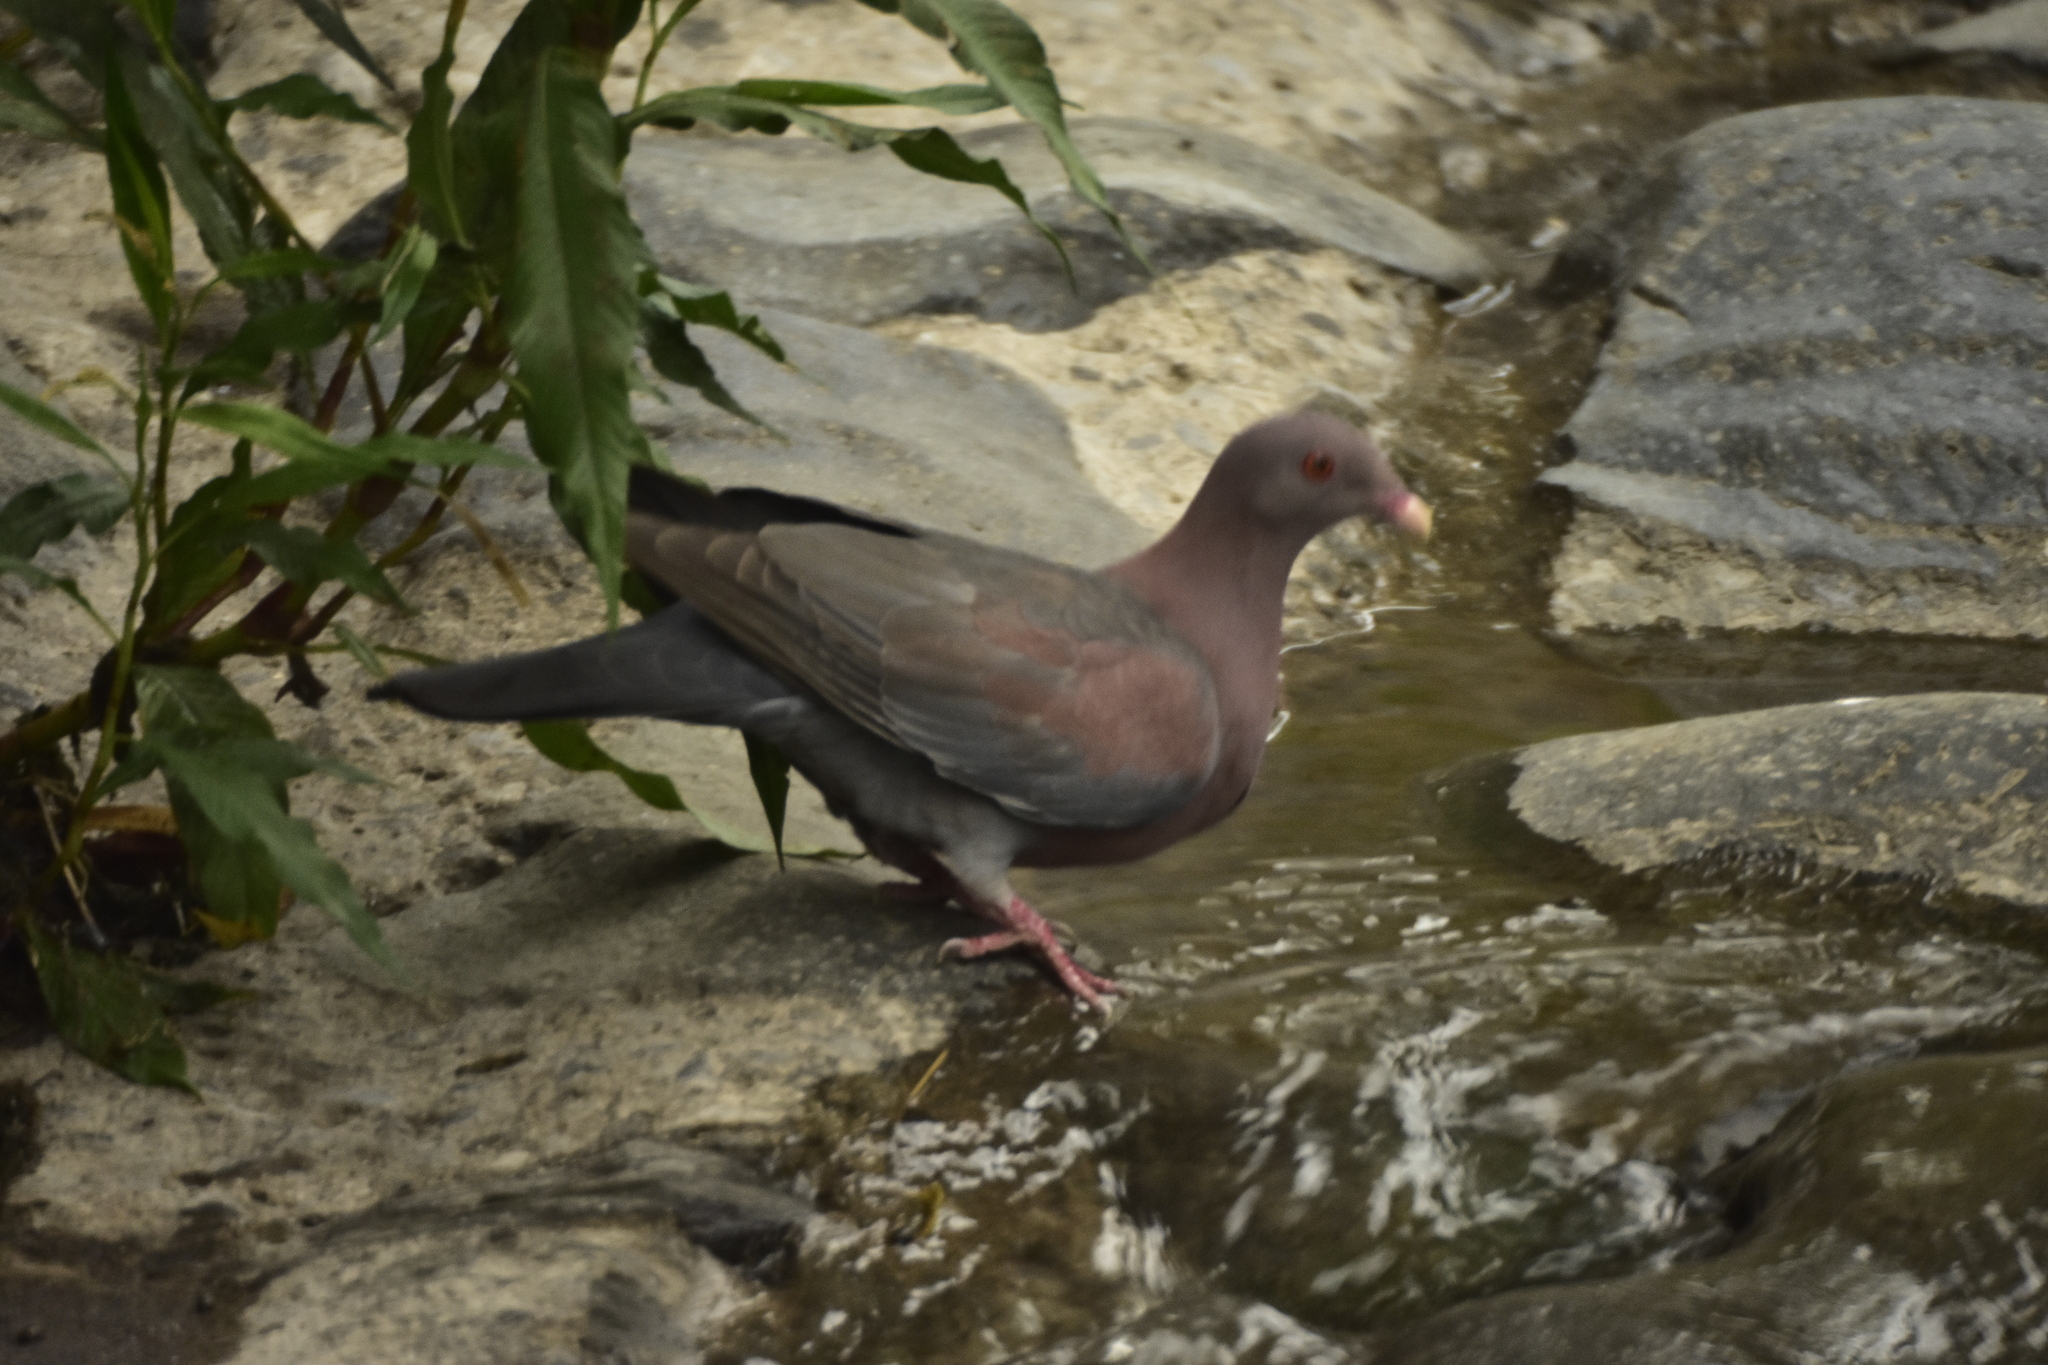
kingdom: Animalia
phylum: Chordata
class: Aves
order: Columbiformes
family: Columbidae
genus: Patagioenas
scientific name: Patagioenas flavirostris
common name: Red-billed pigeon
